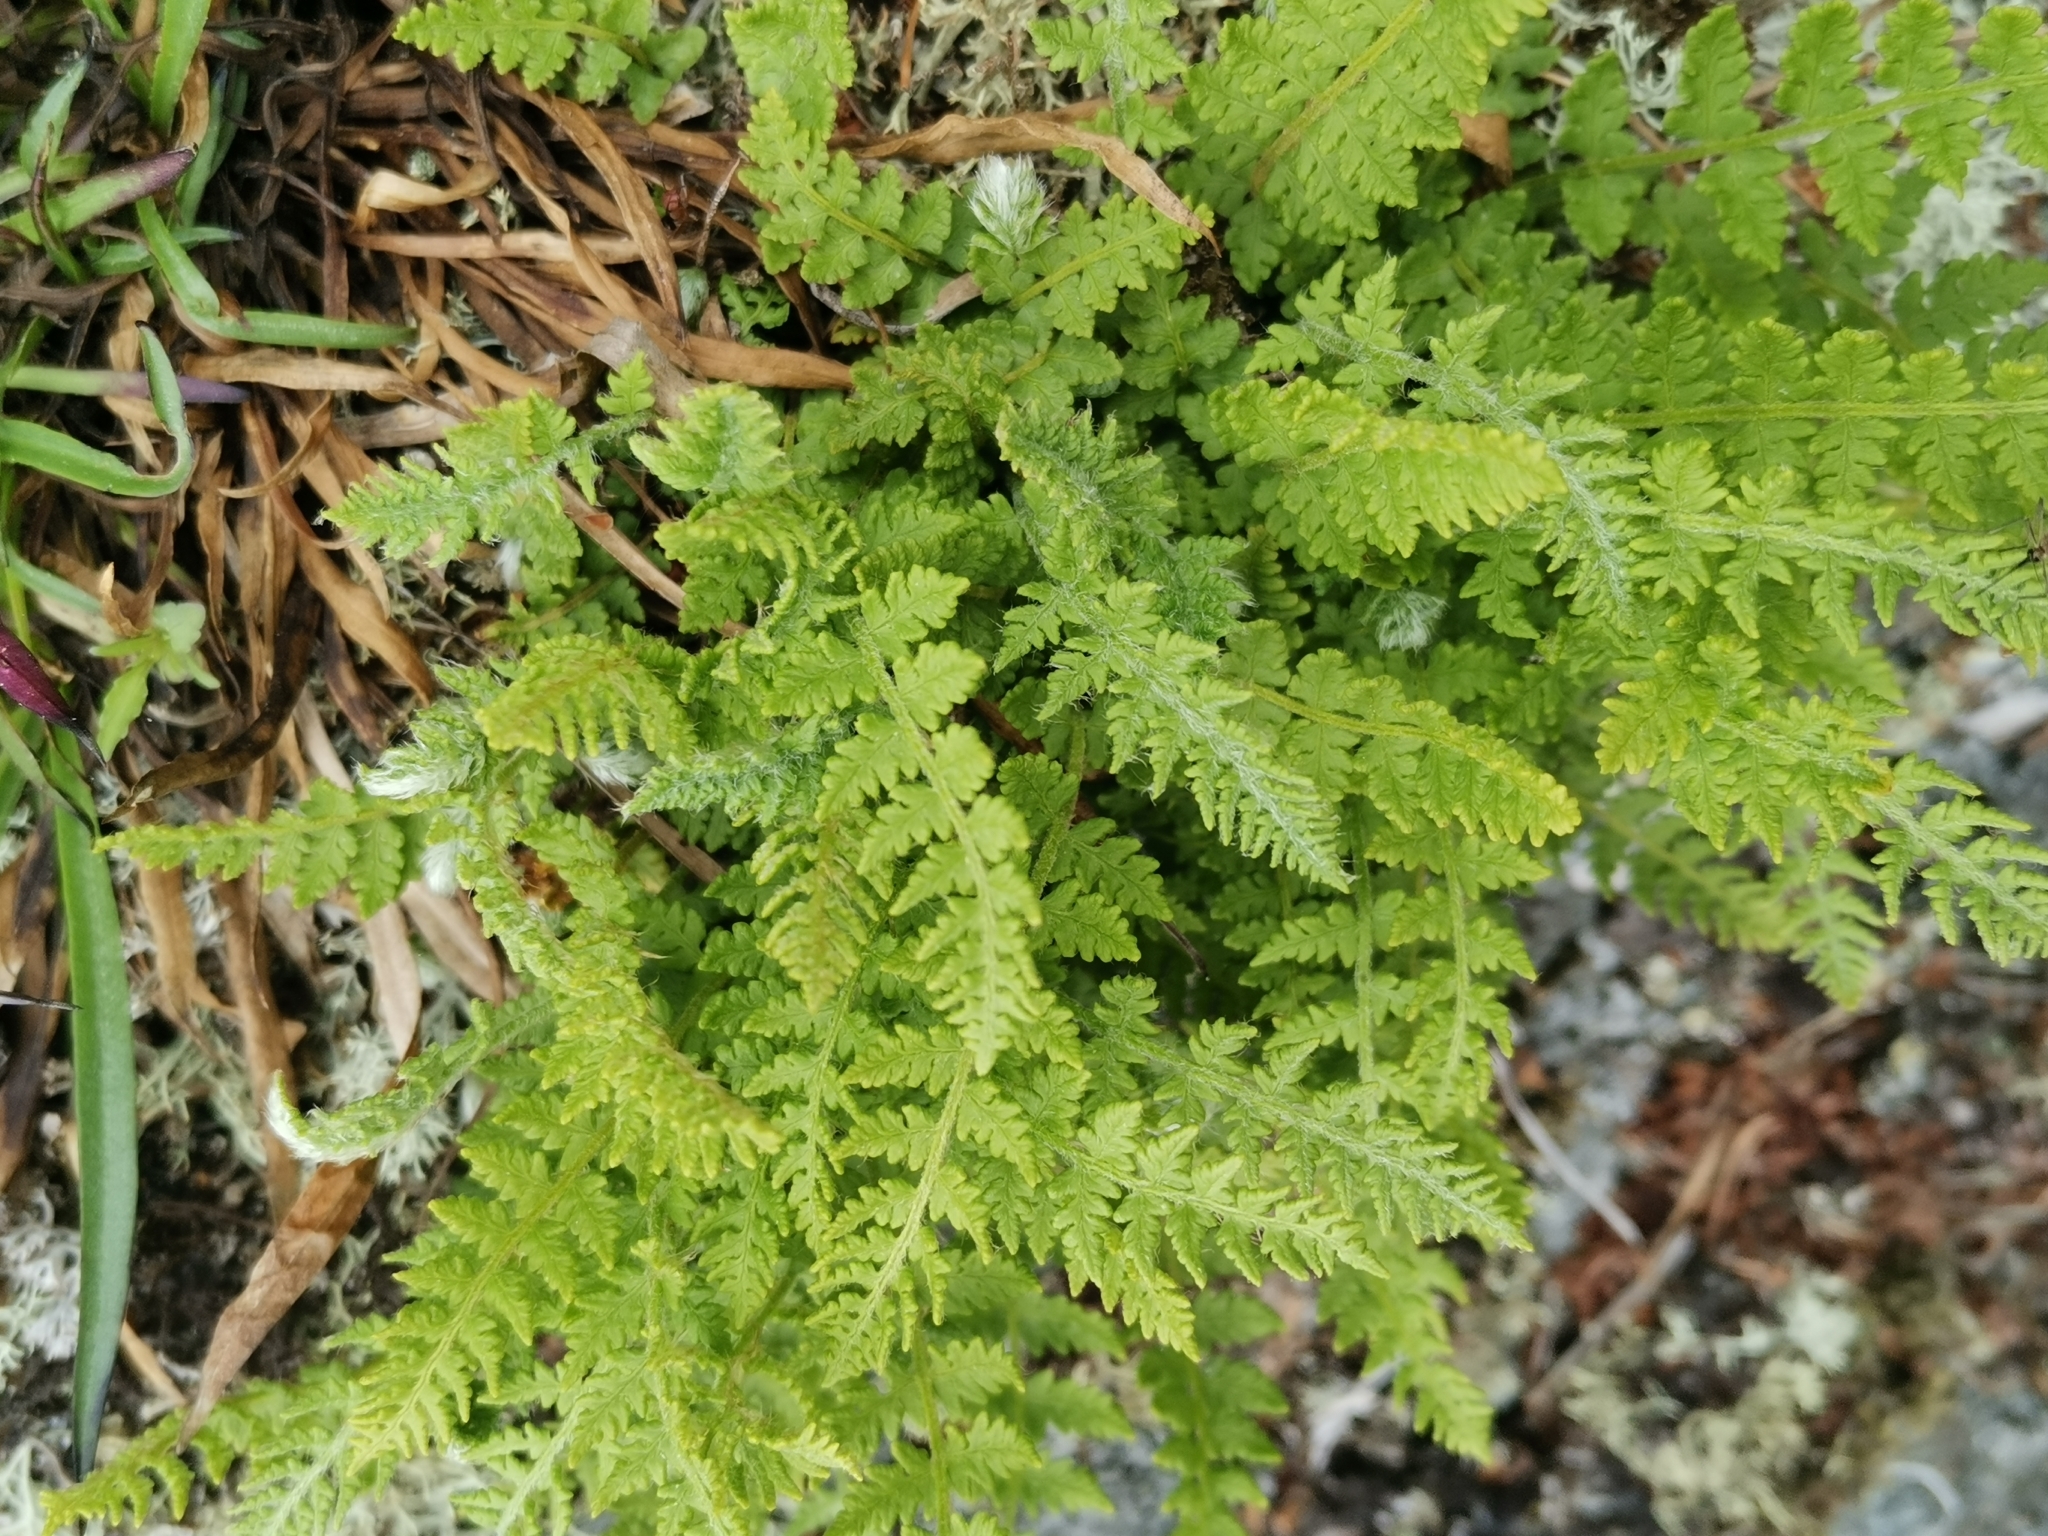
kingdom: Plantae
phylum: Tracheophyta
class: Polypodiopsida
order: Polypodiales
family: Woodsiaceae
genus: Woodsia
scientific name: Woodsia ilvensis
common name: Fragrant woodsia
